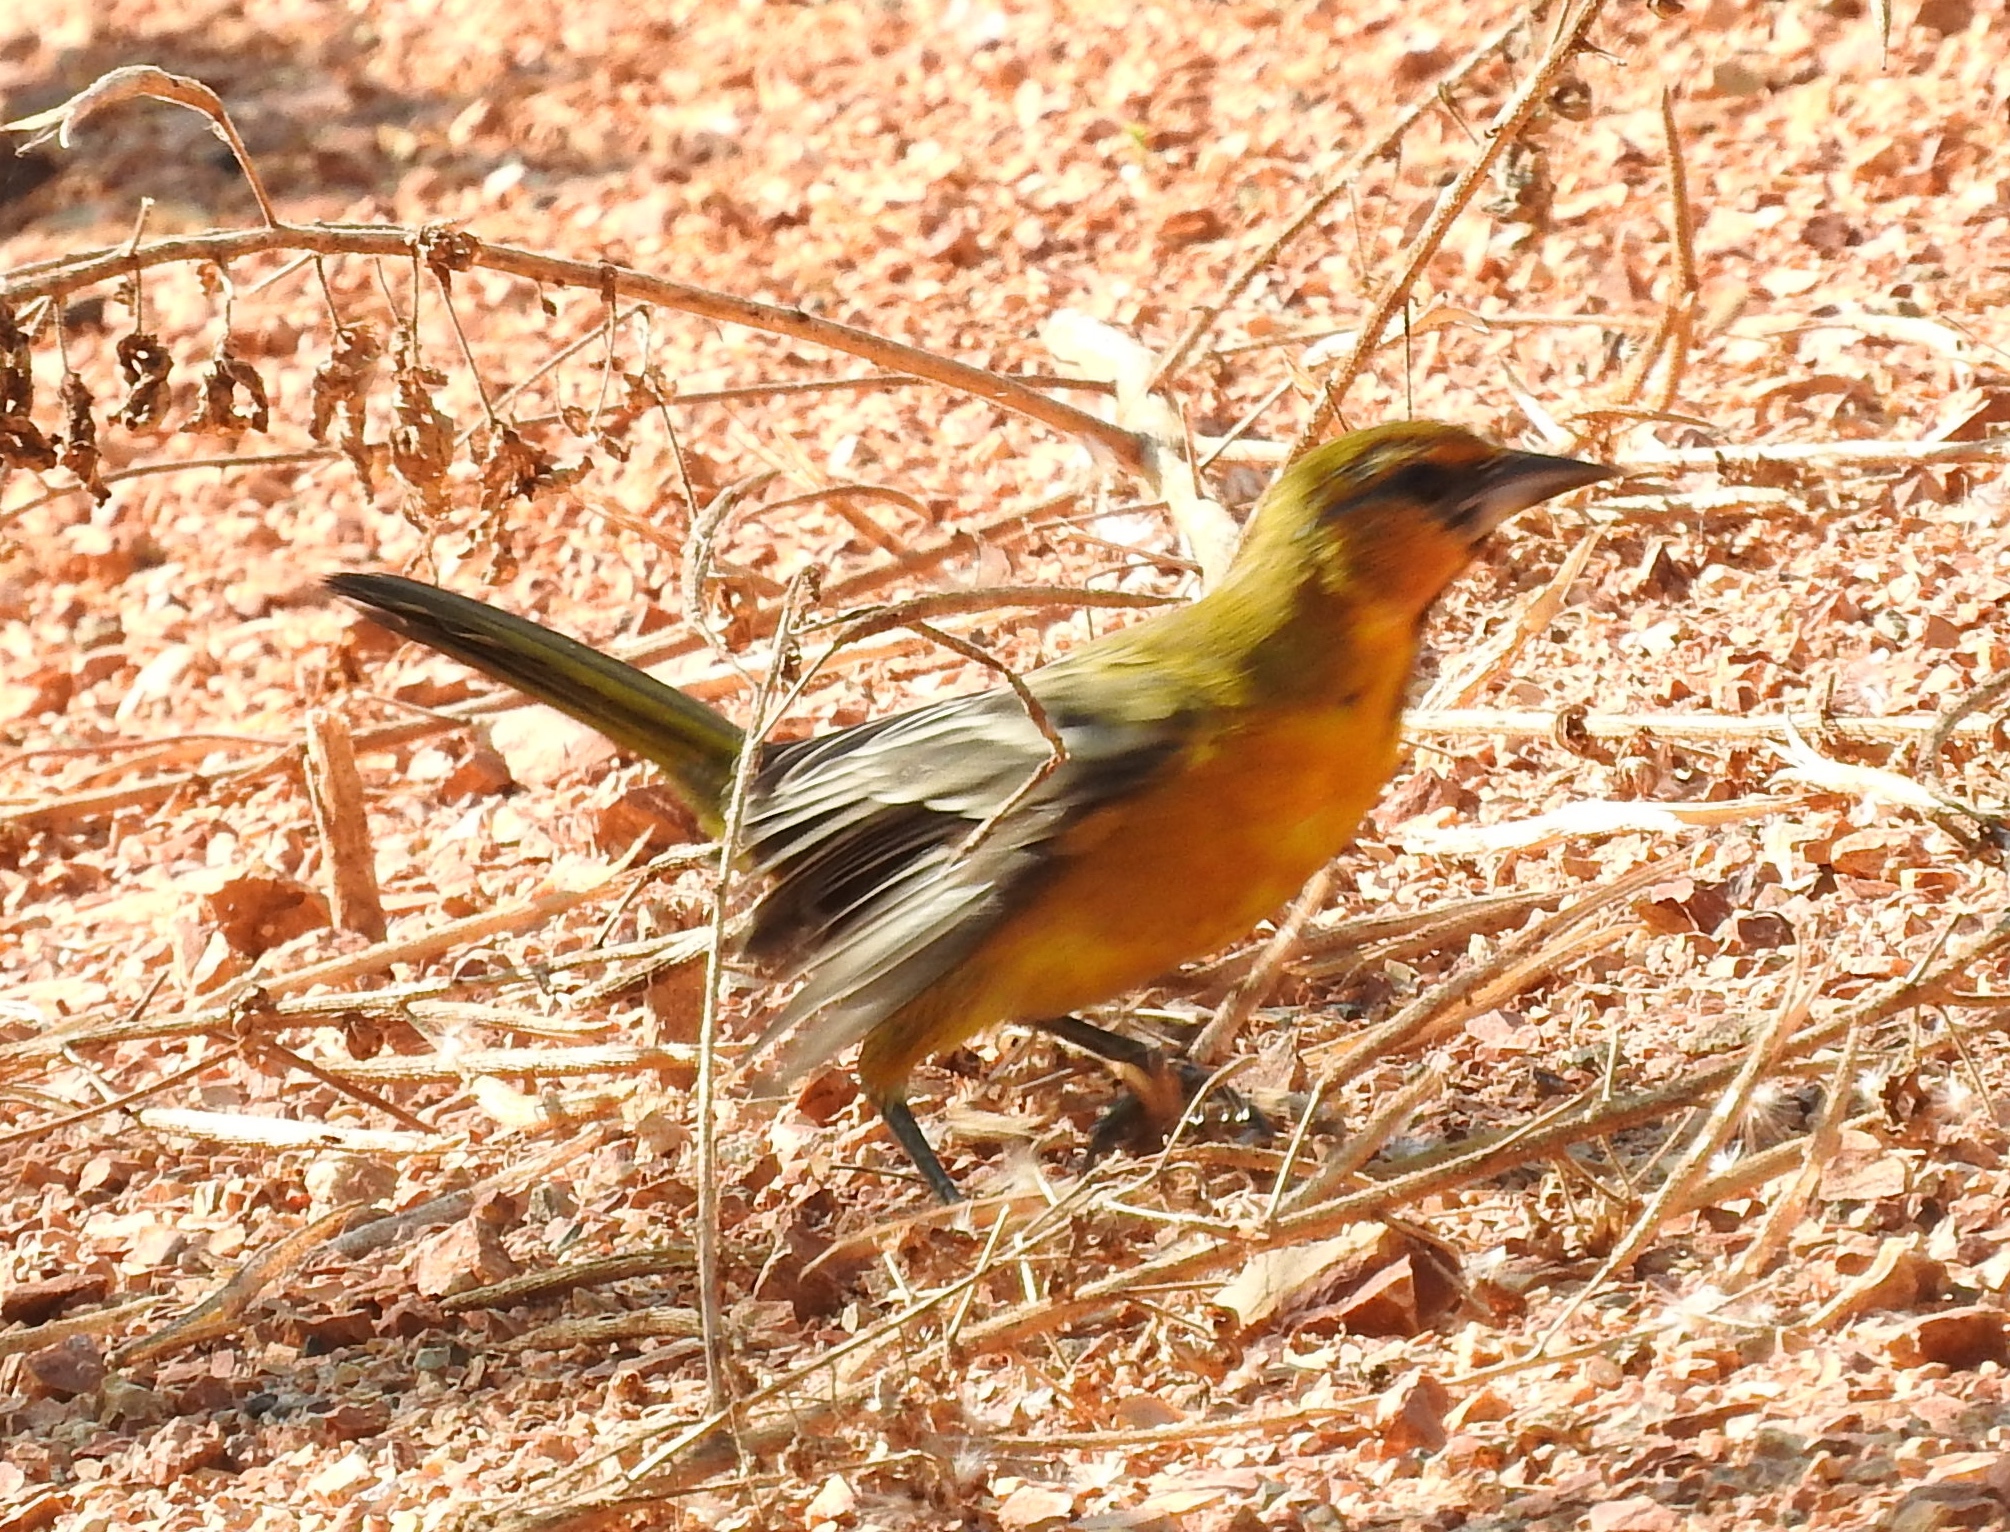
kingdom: Animalia
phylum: Chordata
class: Aves
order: Passeriformes
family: Icteridae
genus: Icterus
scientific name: Icterus pustulatus
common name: Streak-backed oriole
